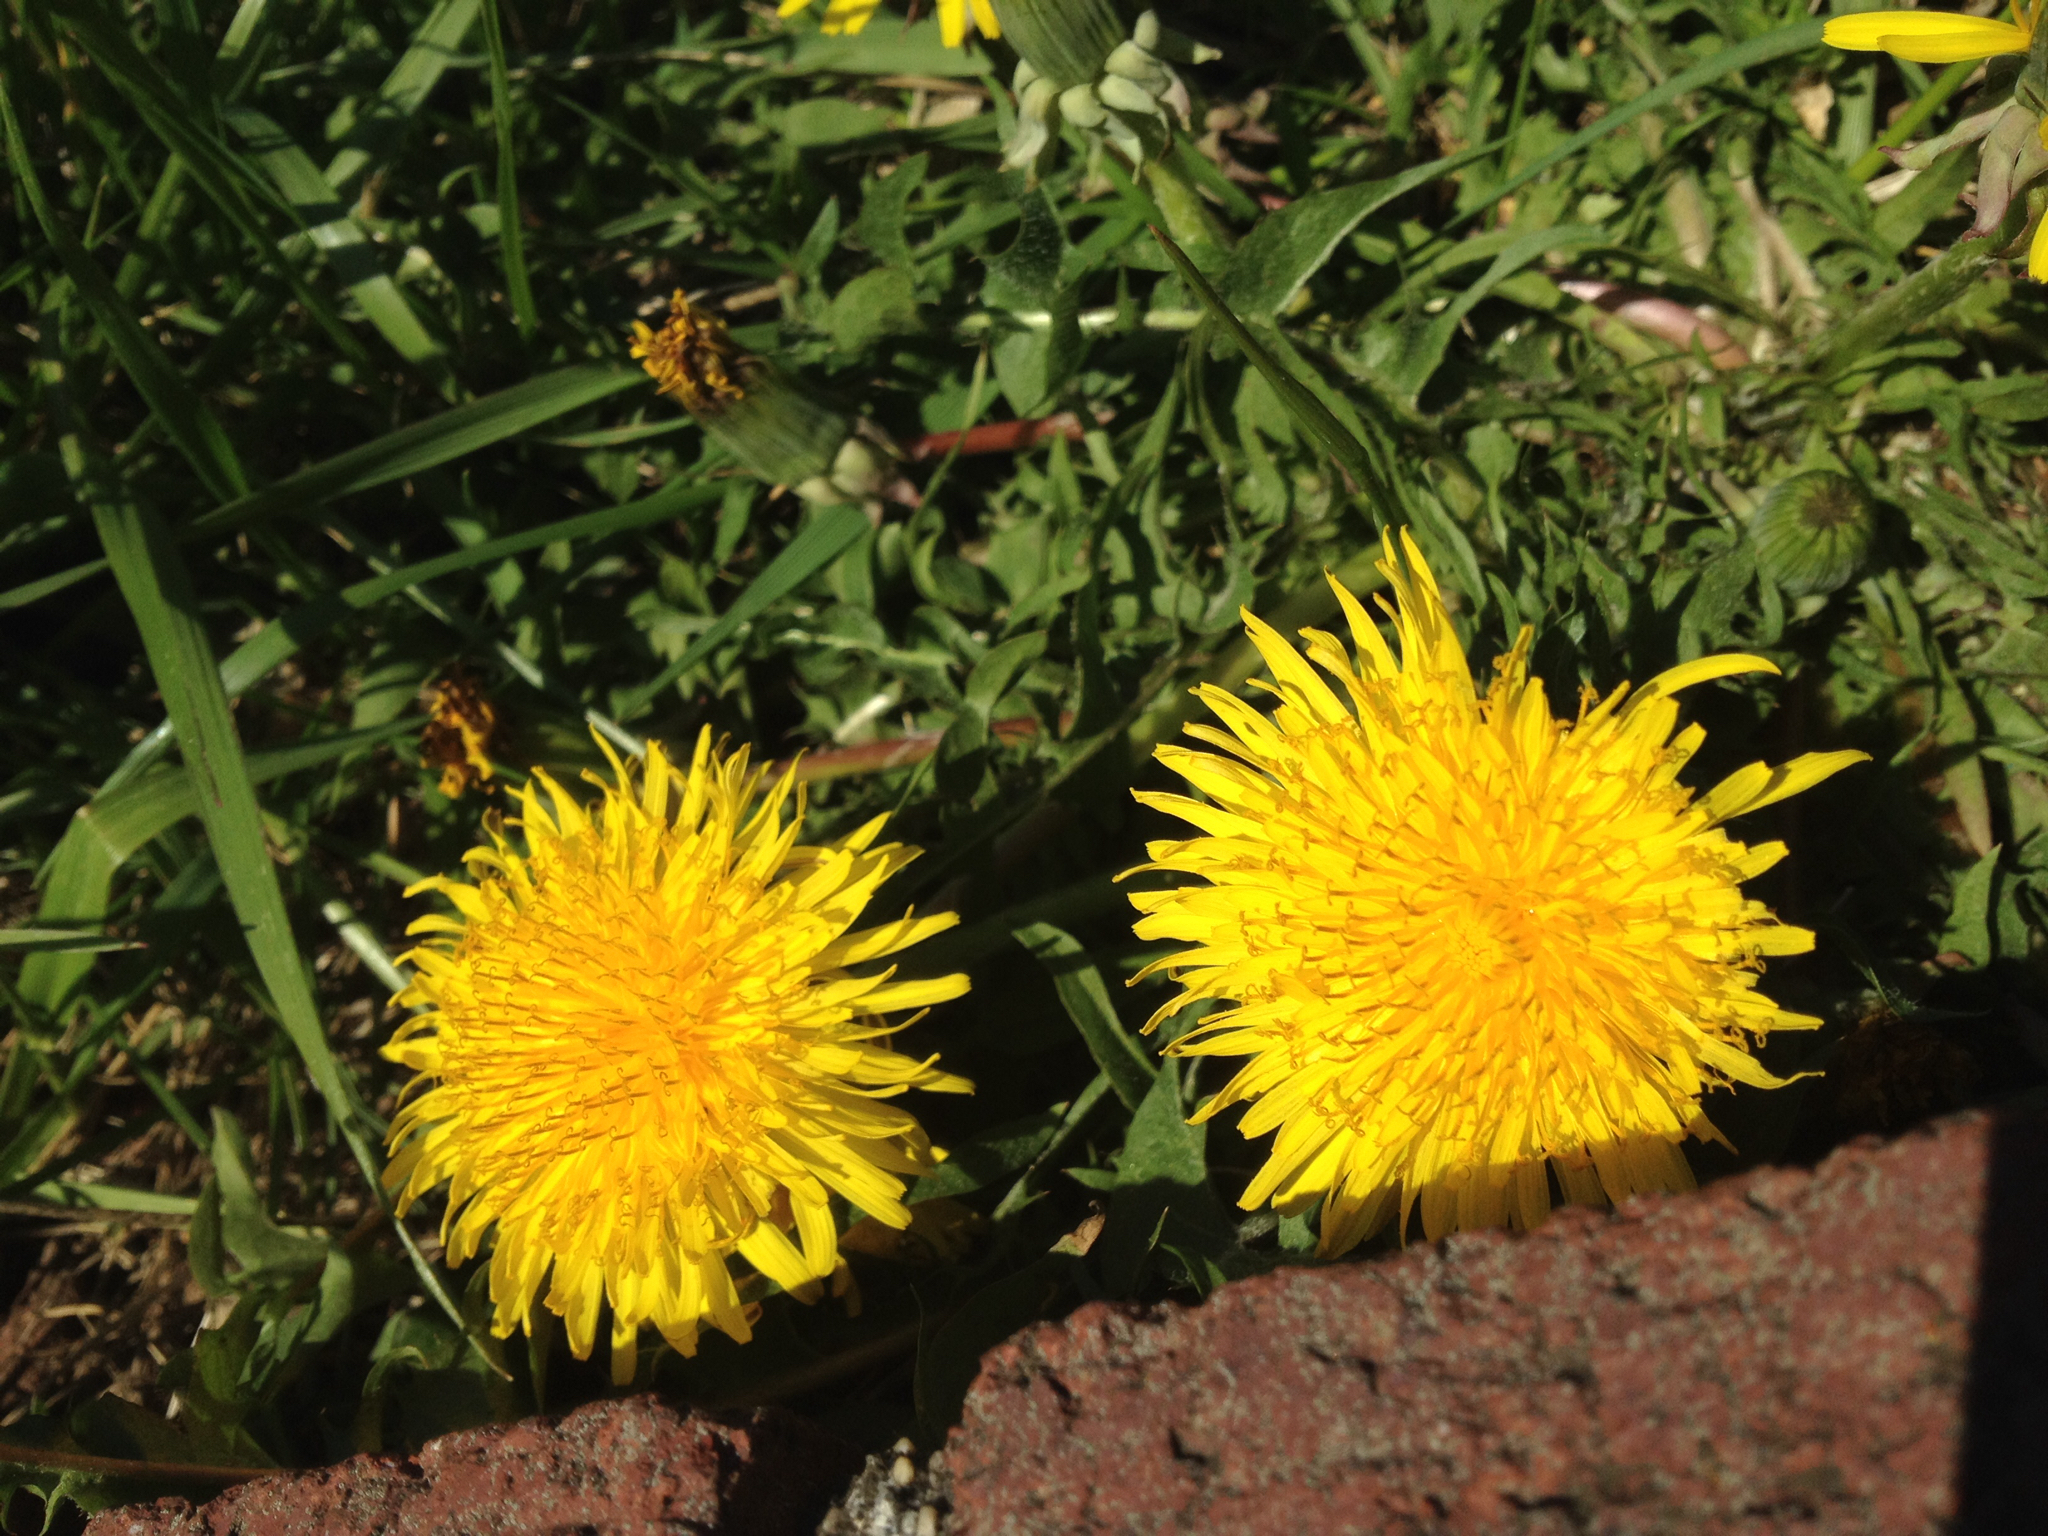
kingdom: Plantae
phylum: Tracheophyta
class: Magnoliopsida
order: Asterales
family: Asteraceae
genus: Taraxacum
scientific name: Taraxacum officinale
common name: Common dandelion
